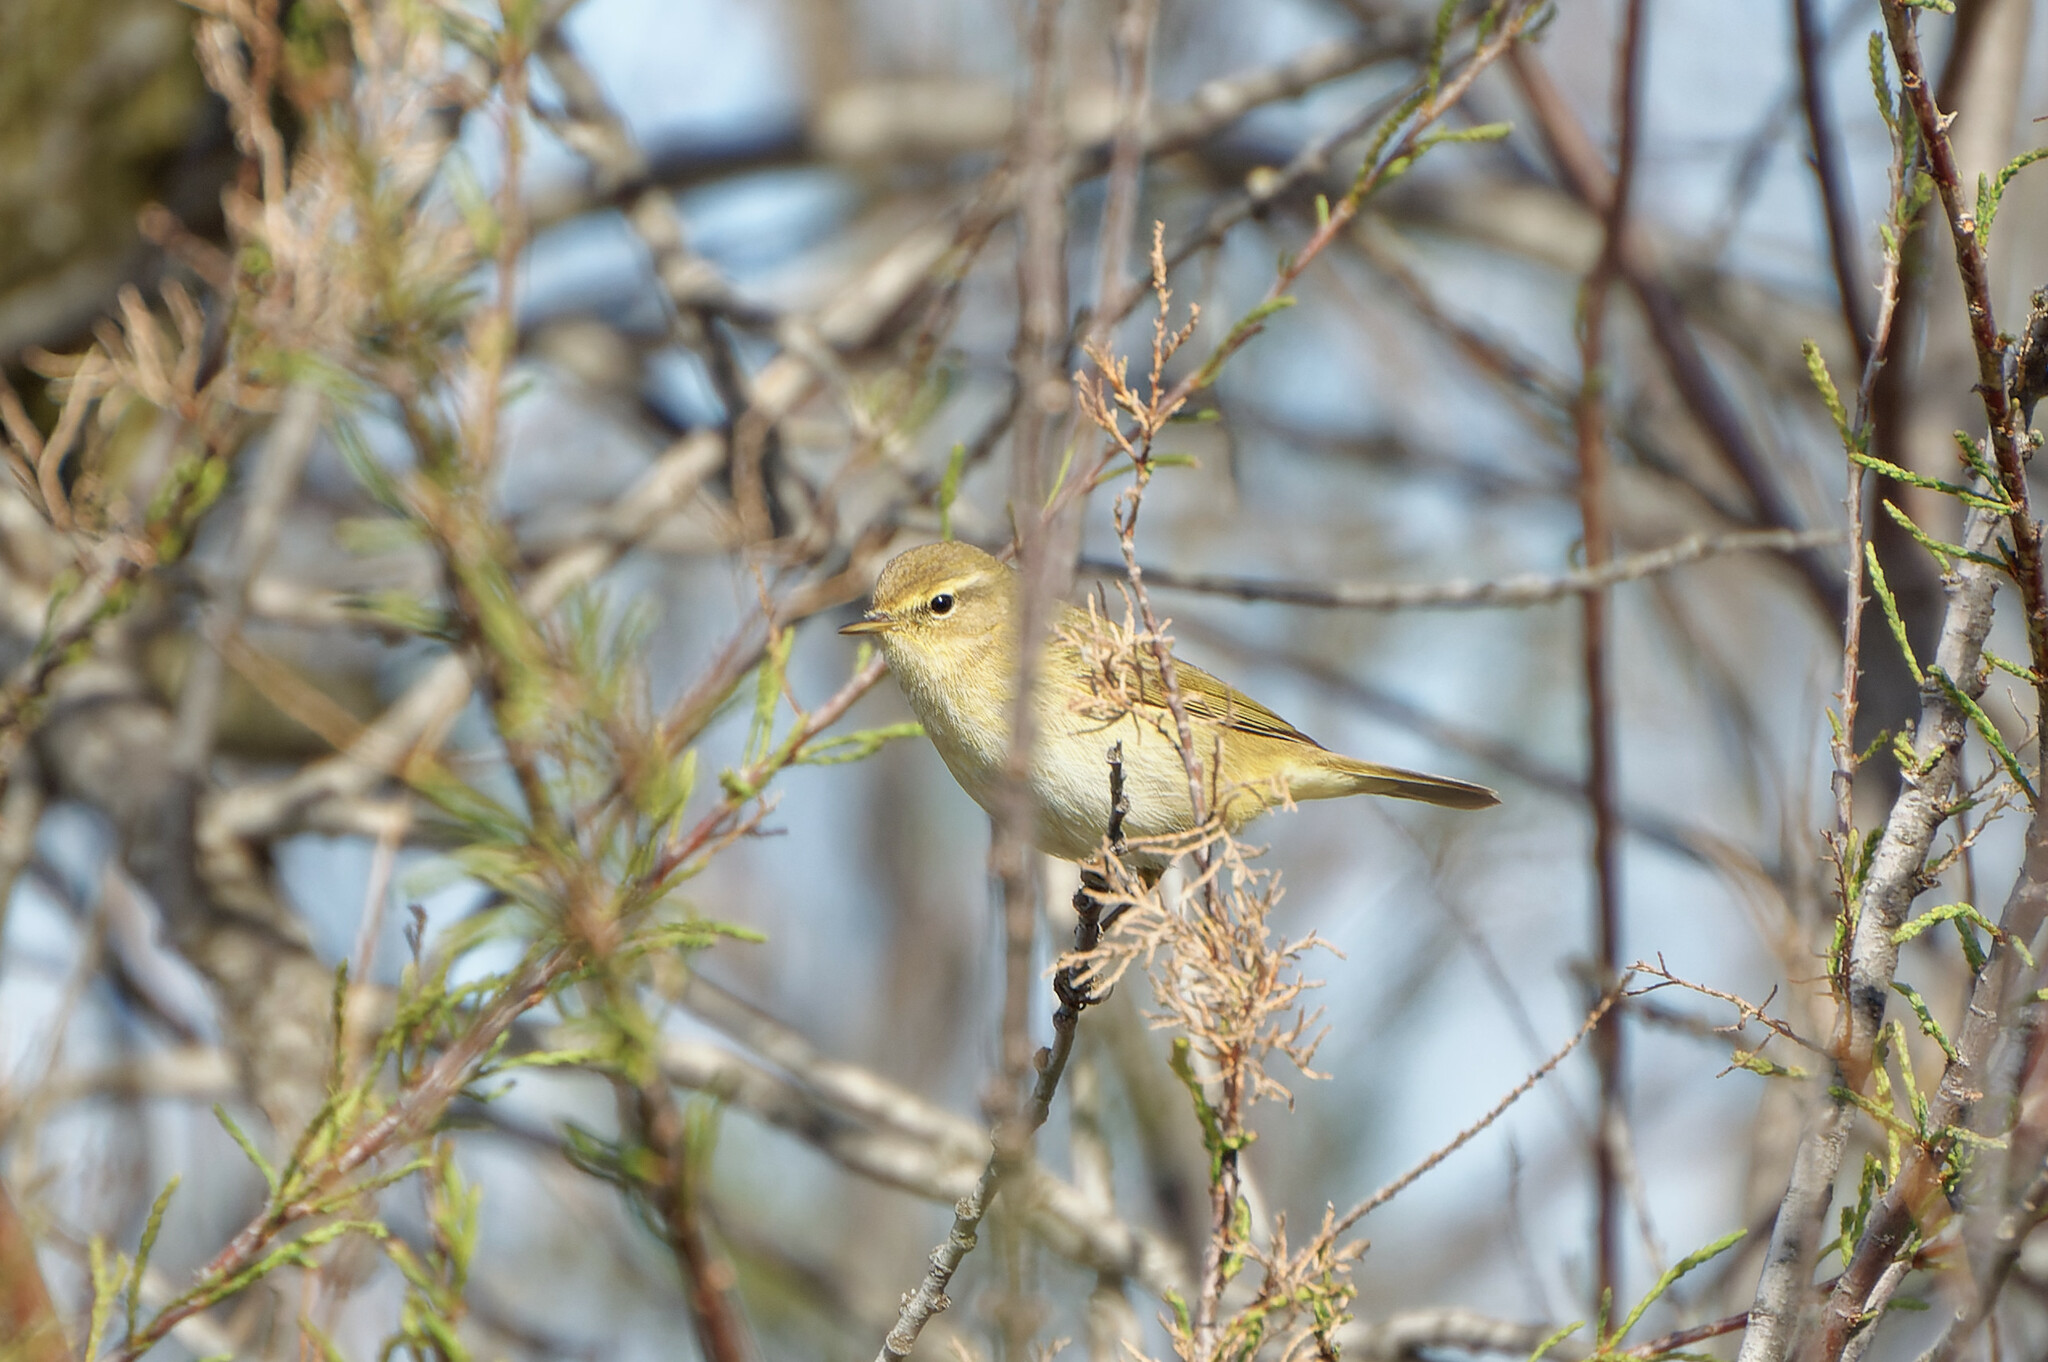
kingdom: Animalia
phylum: Chordata
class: Aves
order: Passeriformes
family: Phylloscopidae
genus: Phylloscopus
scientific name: Phylloscopus collybita
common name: Common chiffchaff
